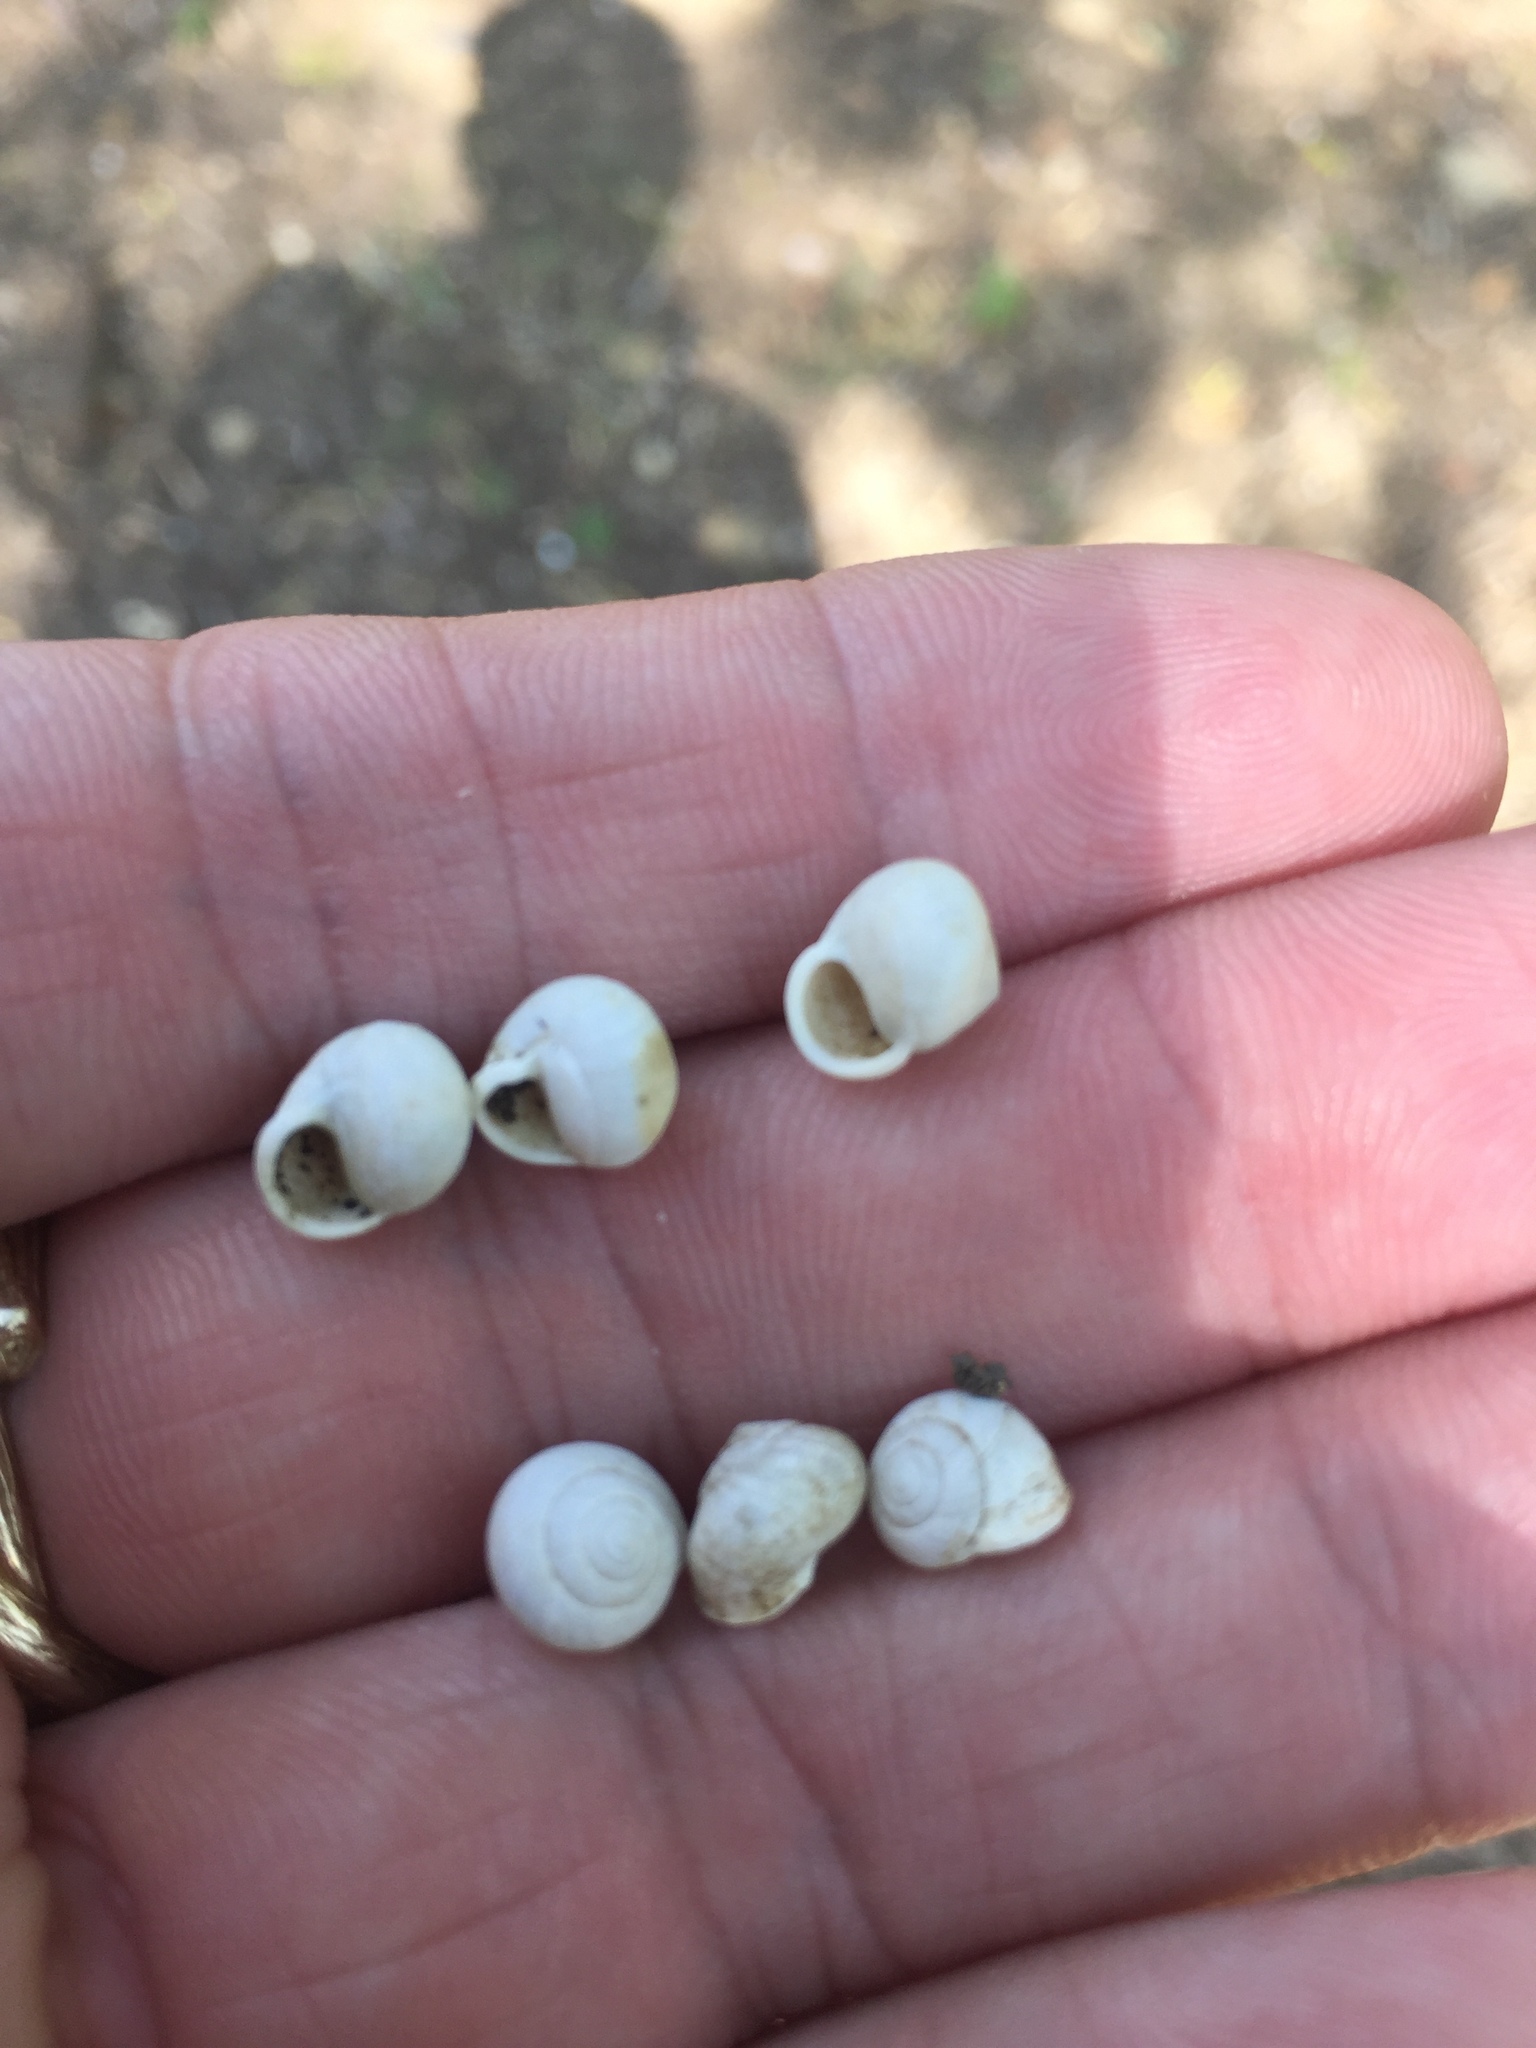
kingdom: Animalia
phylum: Mollusca
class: Gastropoda
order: Cycloneritida
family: Helicinidae
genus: Helicina
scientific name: Helicina orbiculata
